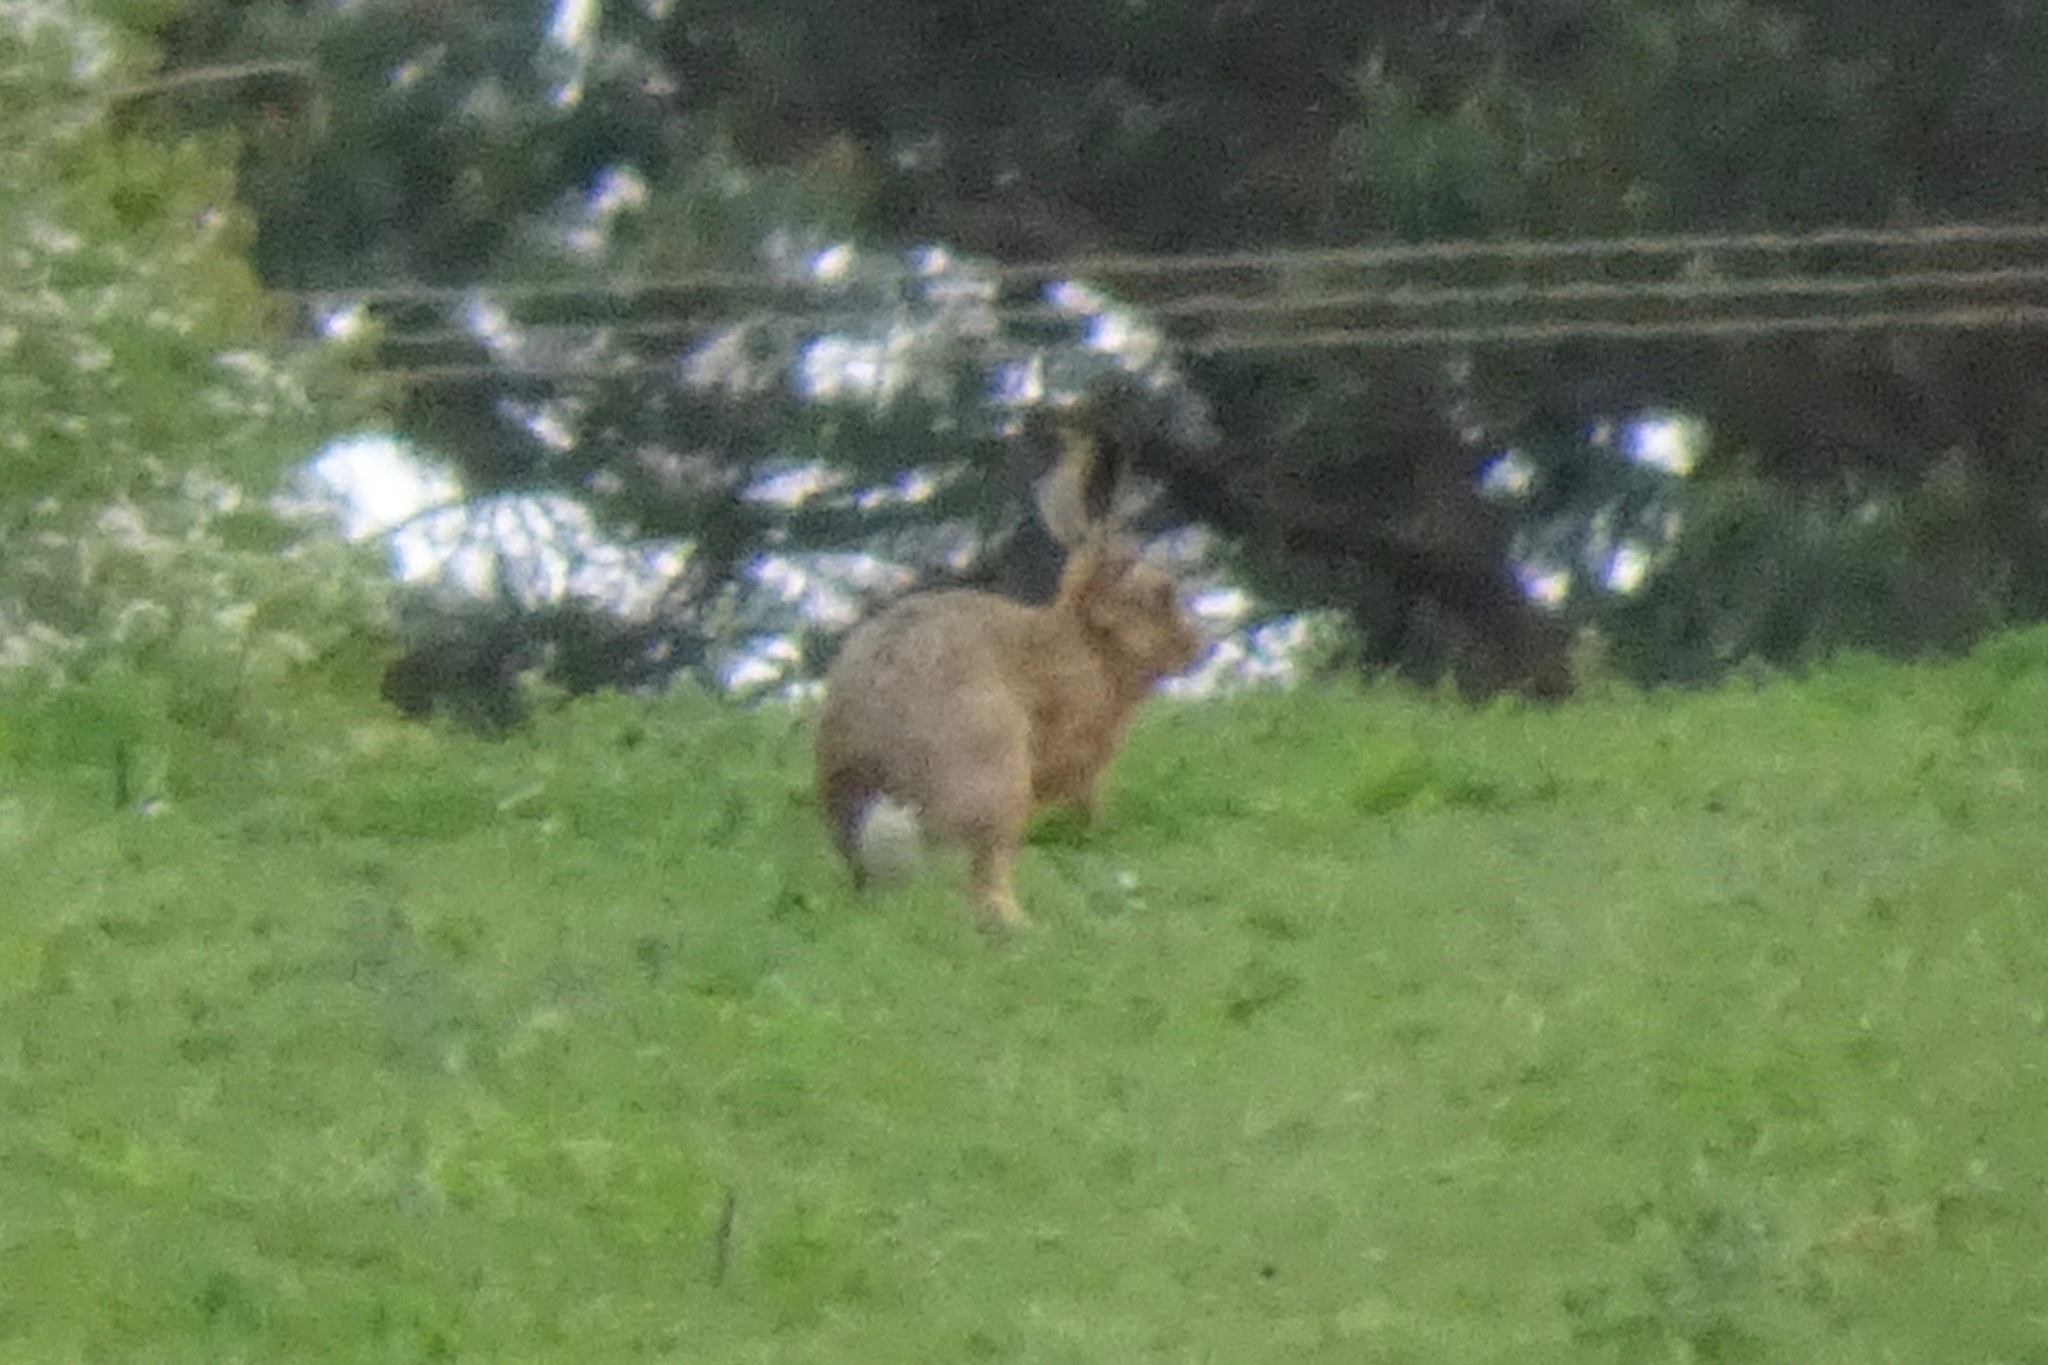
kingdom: Animalia
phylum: Chordata
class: Mammalia
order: Lagomorpha
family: Leporidae
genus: Lepus
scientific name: Lepus europaeus
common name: European hare
